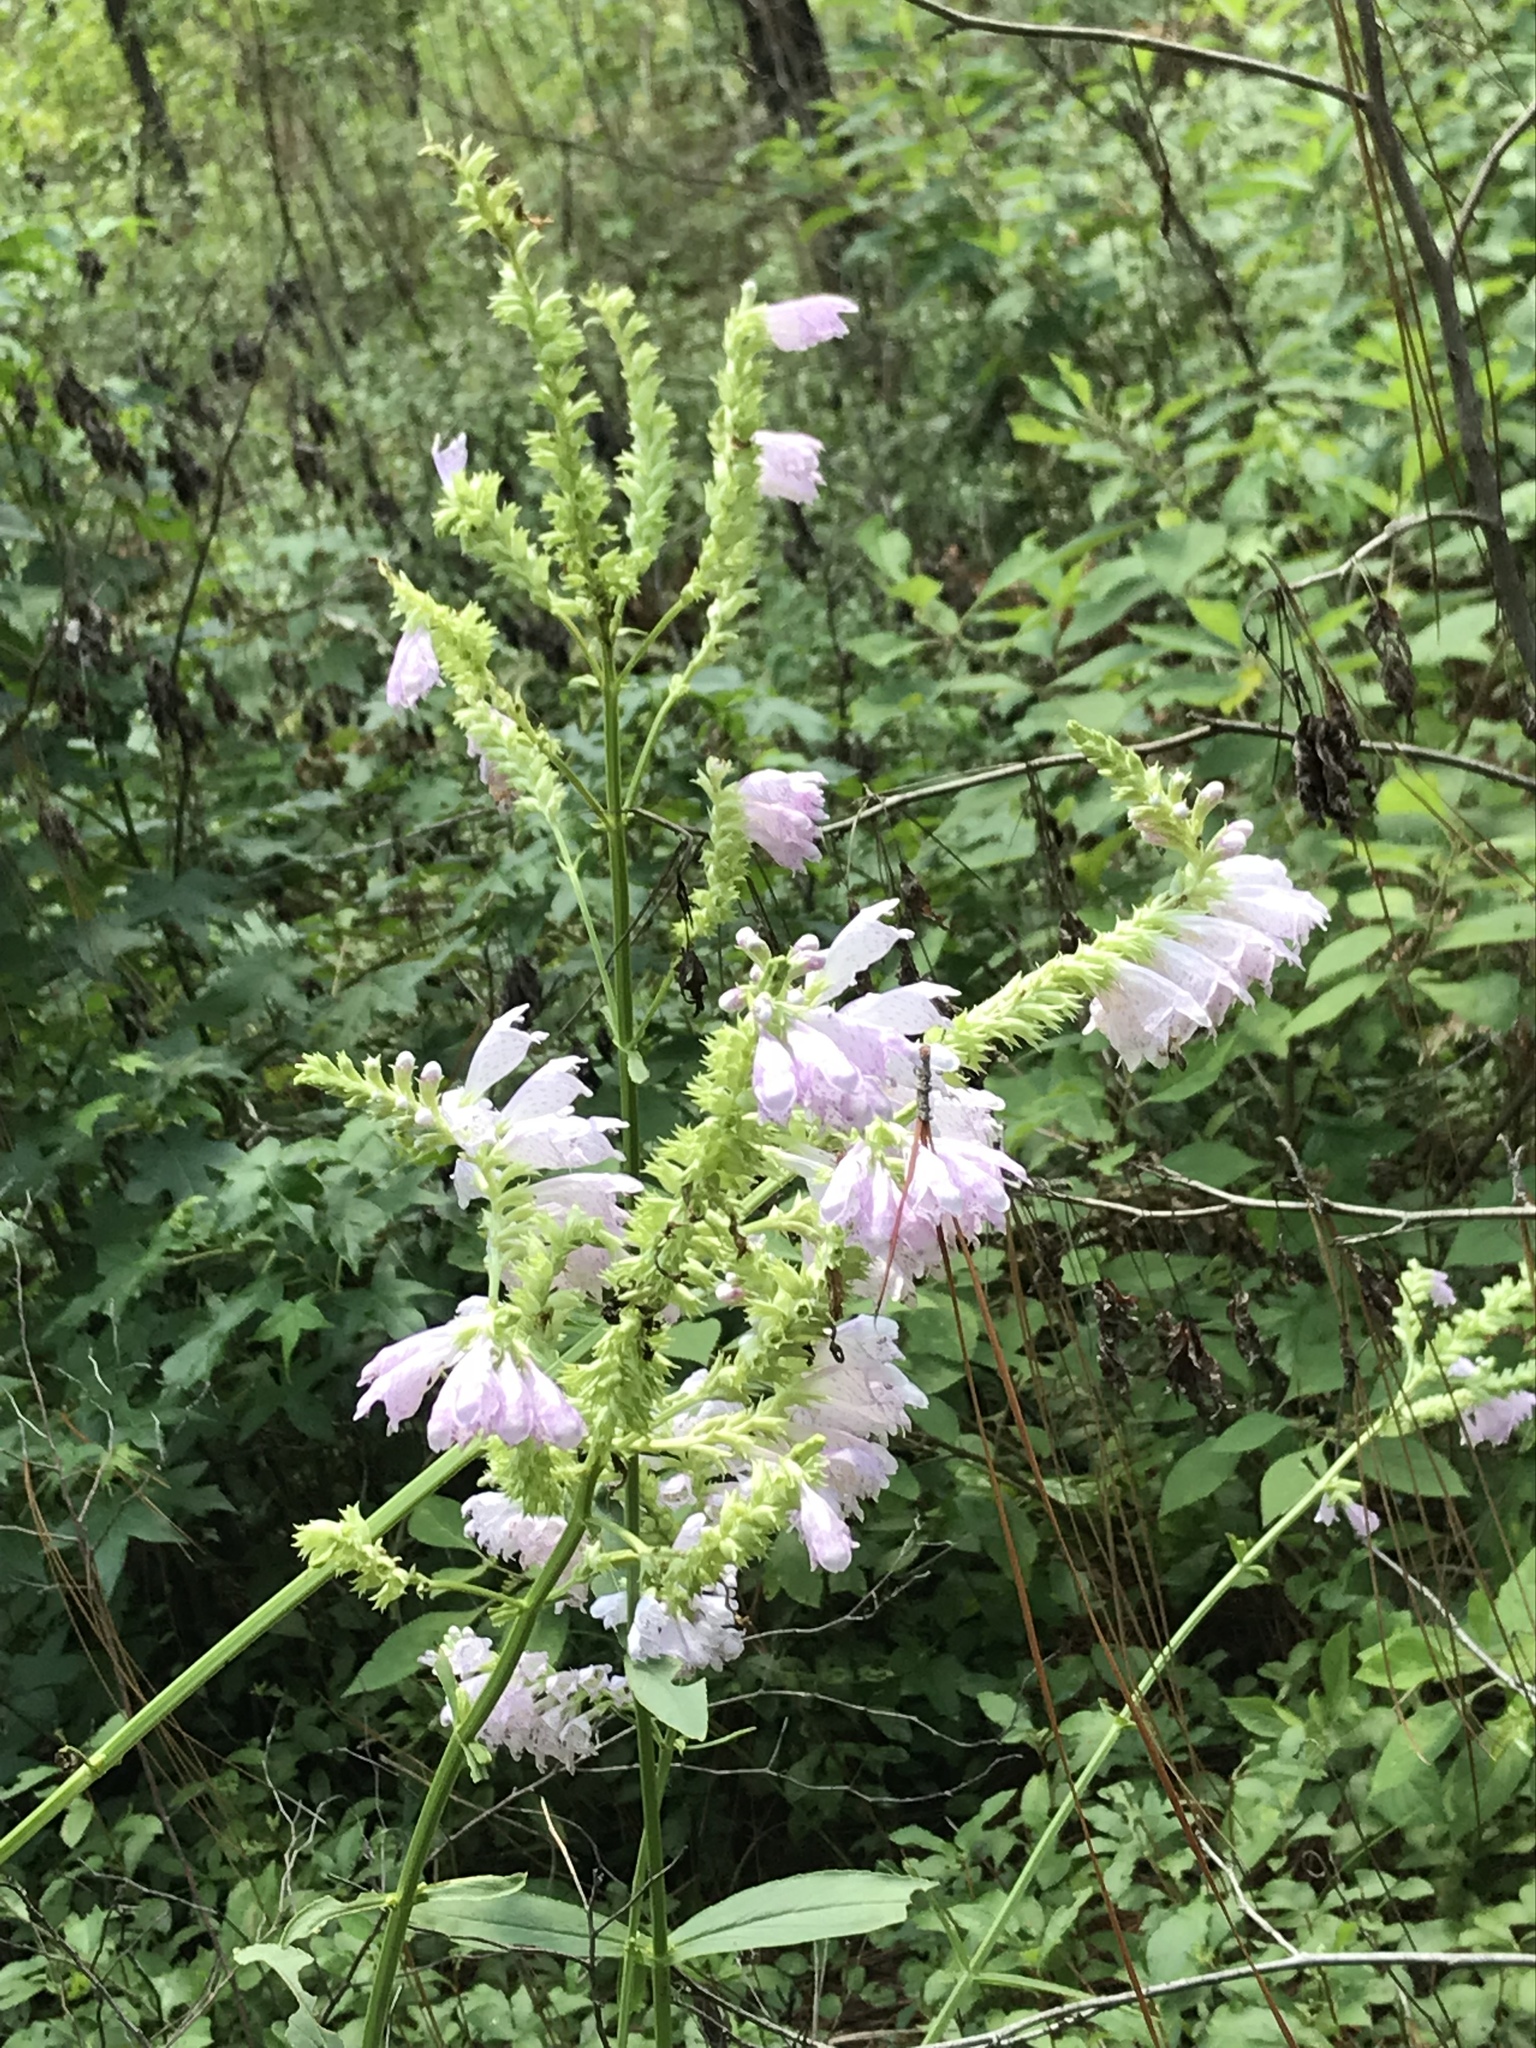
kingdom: Plantae
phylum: Tracheophyta
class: Magnoliopsida
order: Lamiales
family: Lamiaceae
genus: Physostegia
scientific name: Physostegia digitalis
